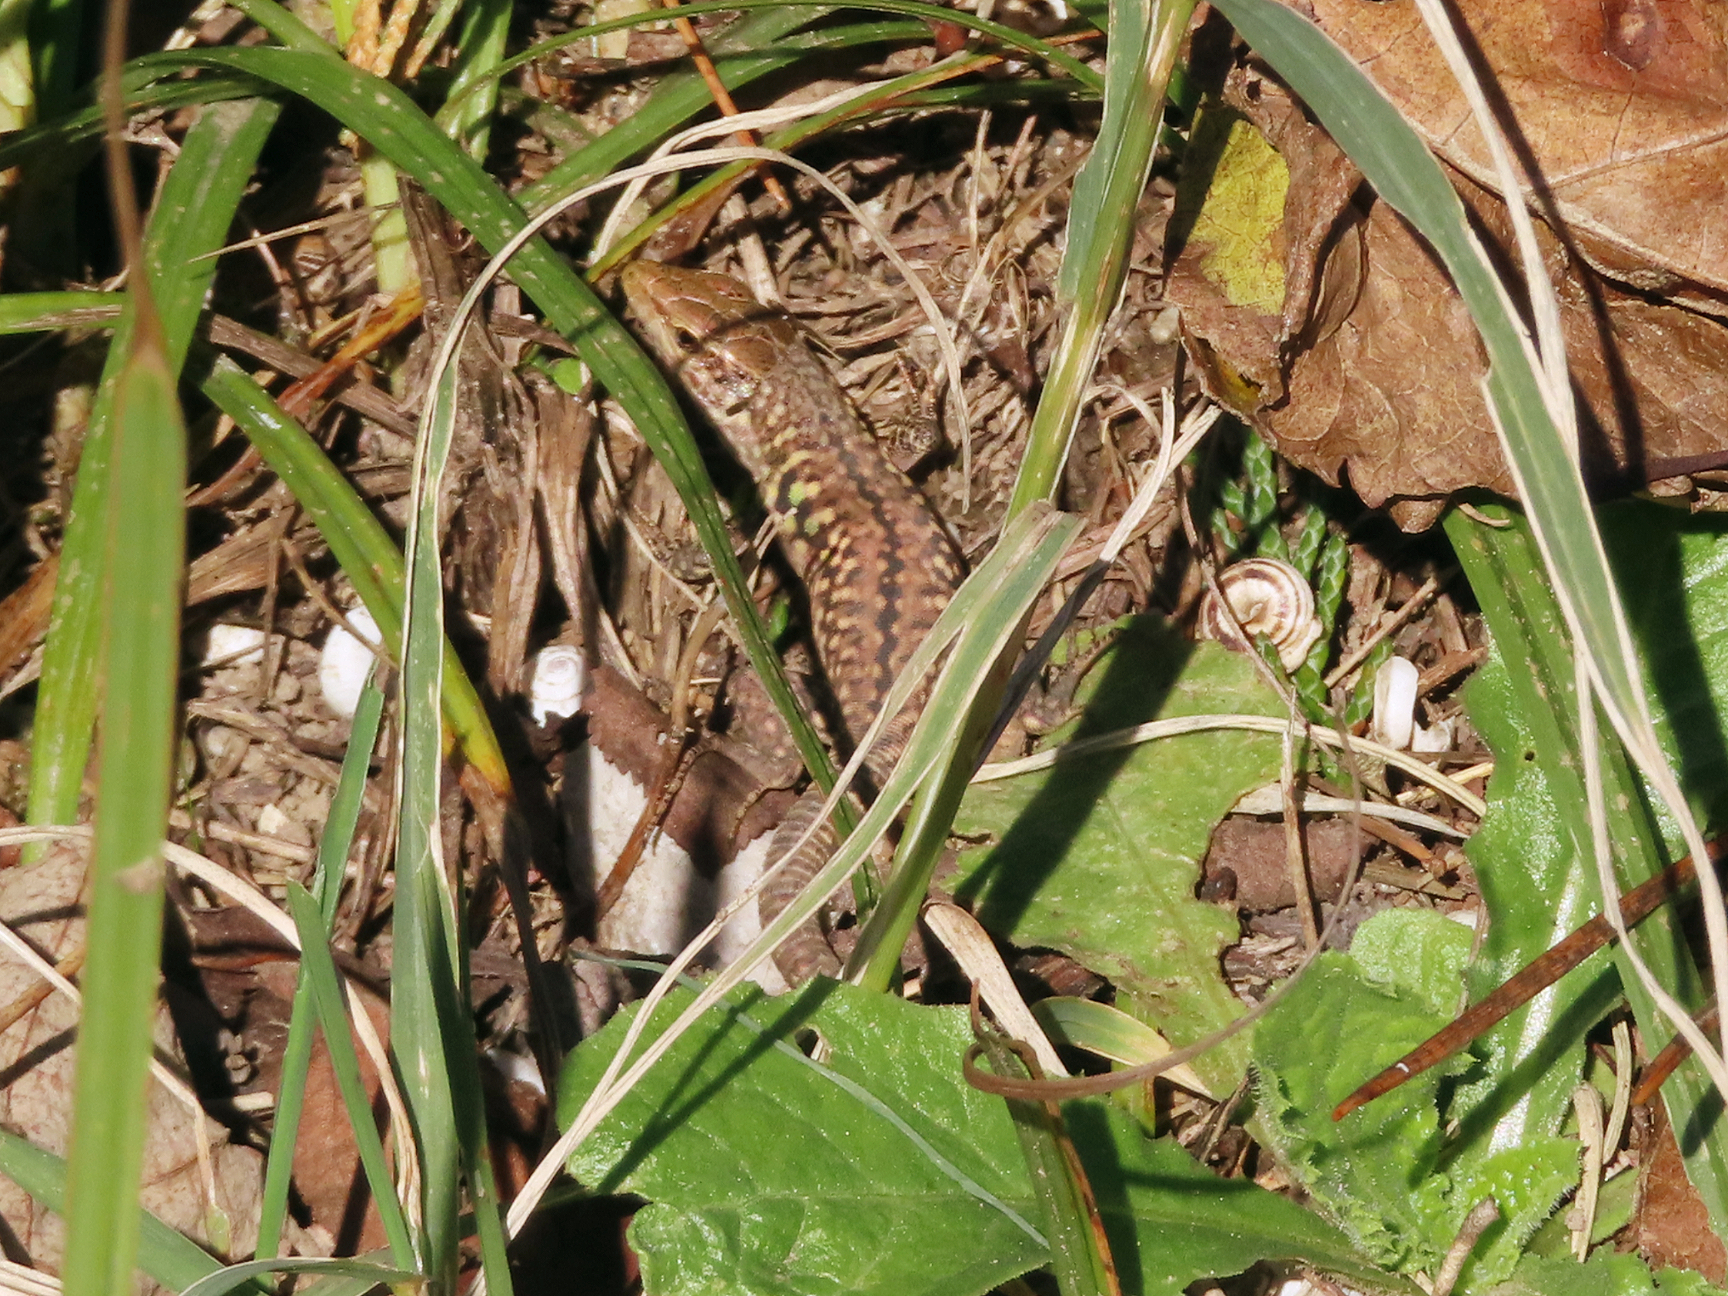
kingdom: Animalia
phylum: Chordata
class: Squamata
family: Lacertidae
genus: Podarcis
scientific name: Podarcis siculus
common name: Italian wall lizard
